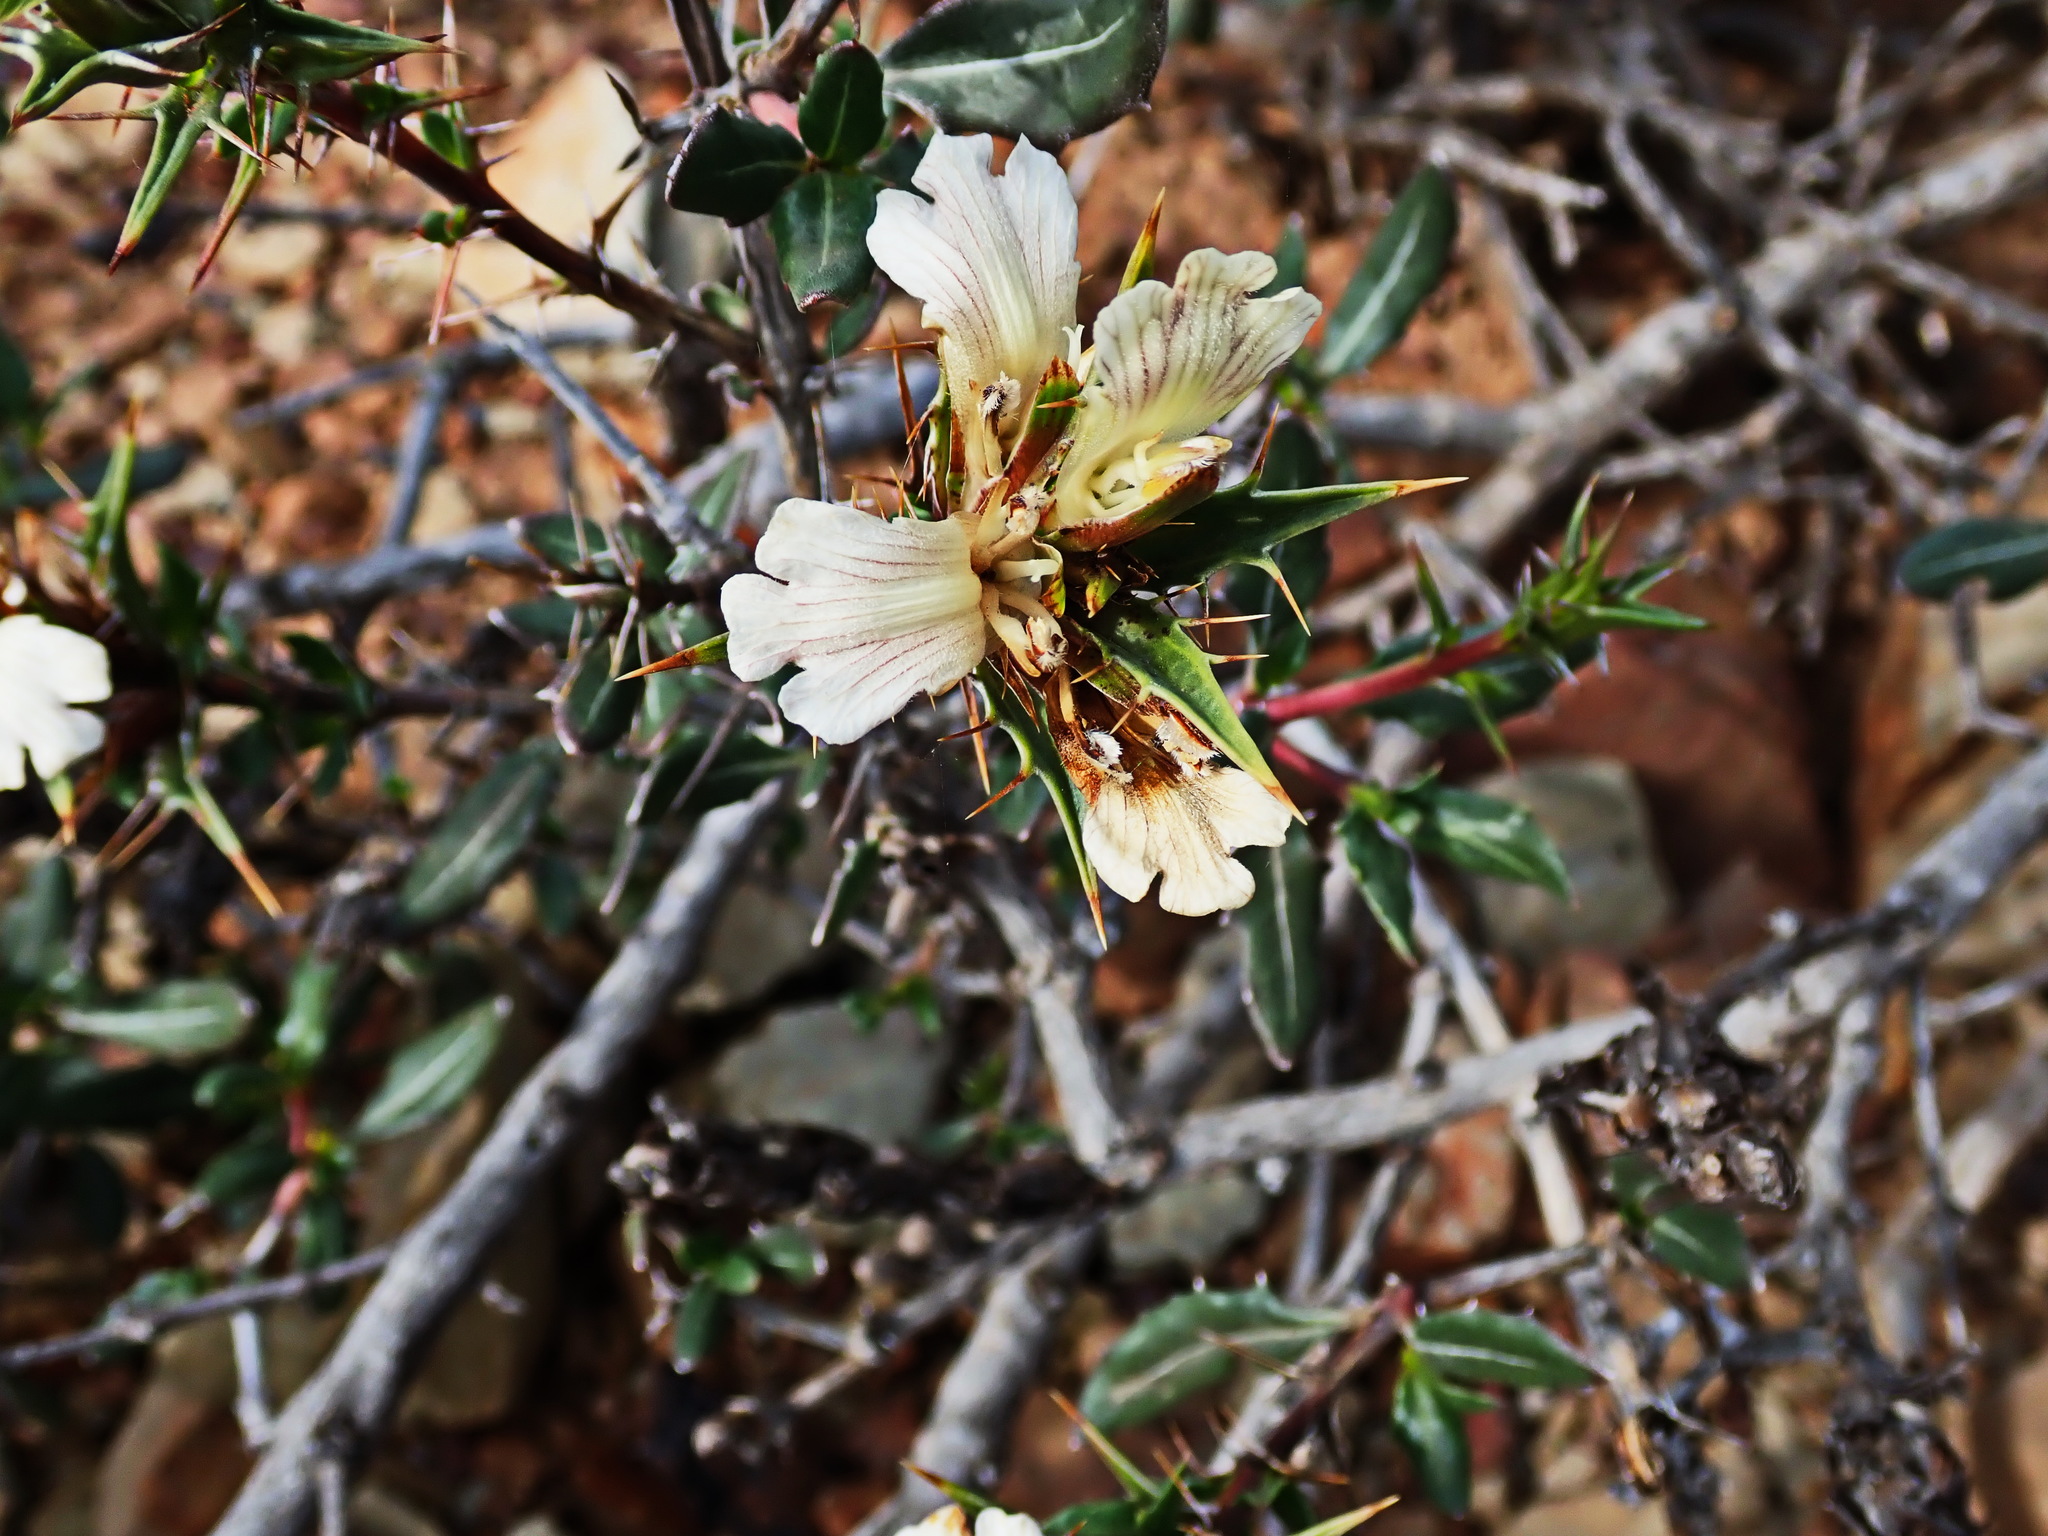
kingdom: Plantae
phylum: Tracheophyta
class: Magnoliopsida
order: Lamiales
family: Acanthaceae
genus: Blepharis
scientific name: Blepharis capensis
